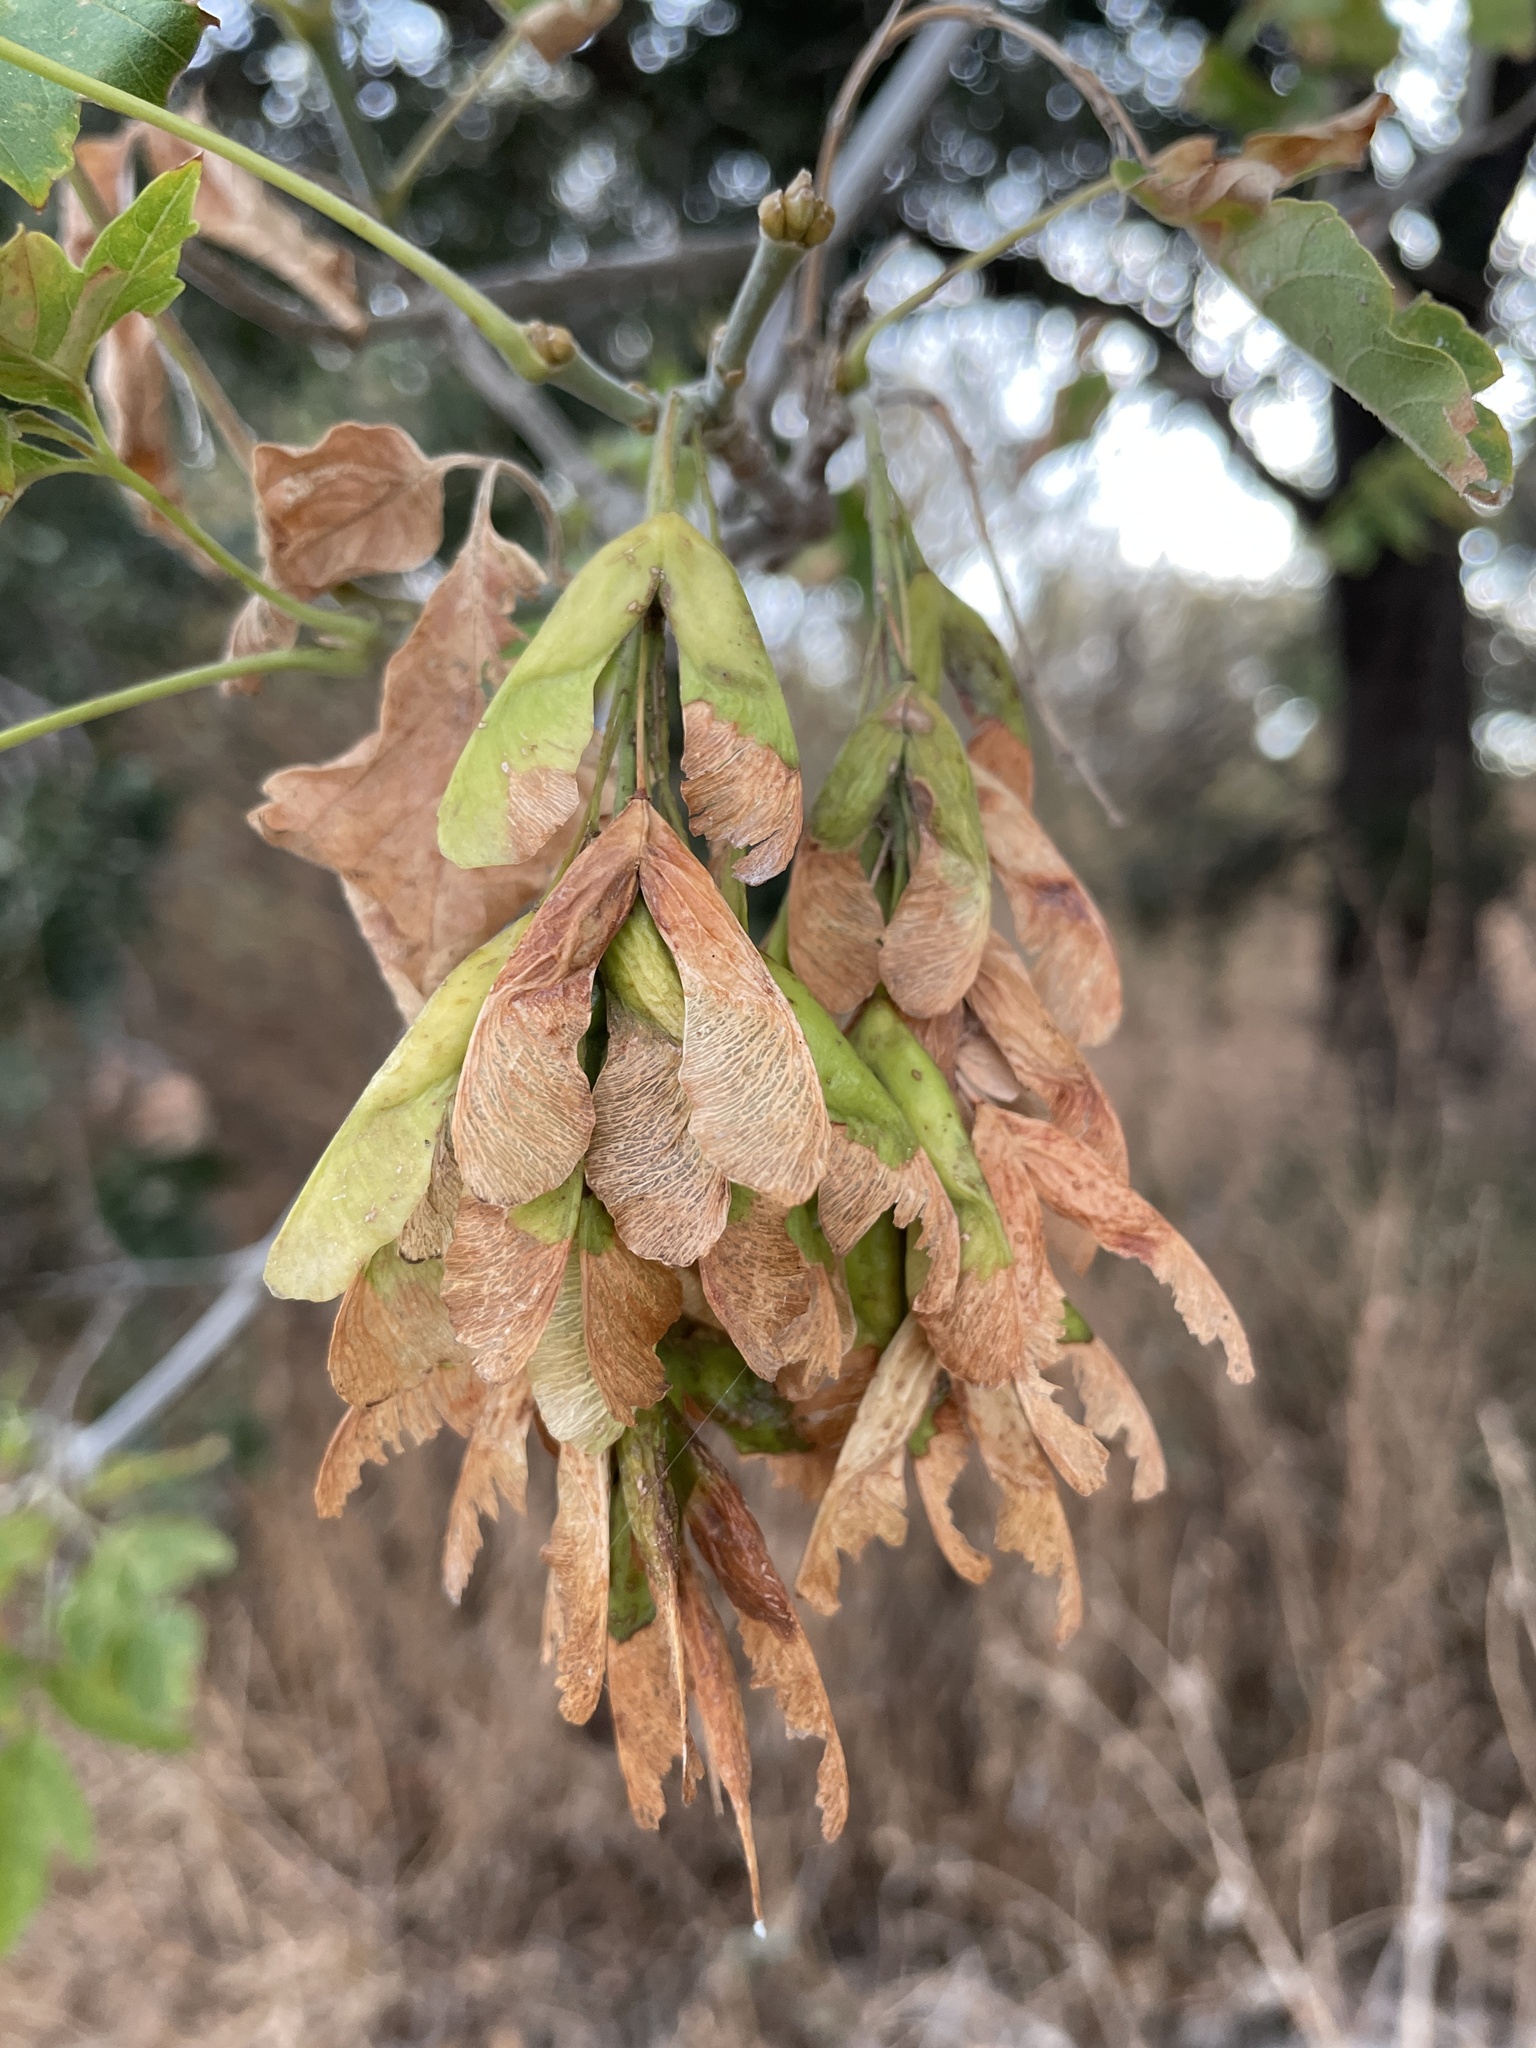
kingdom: Plantae
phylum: Tracheophyta
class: Magnoliopsida
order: Sapindales
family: Sapindaceae
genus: Acer
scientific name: Acer negundo
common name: Ashleaf maple
